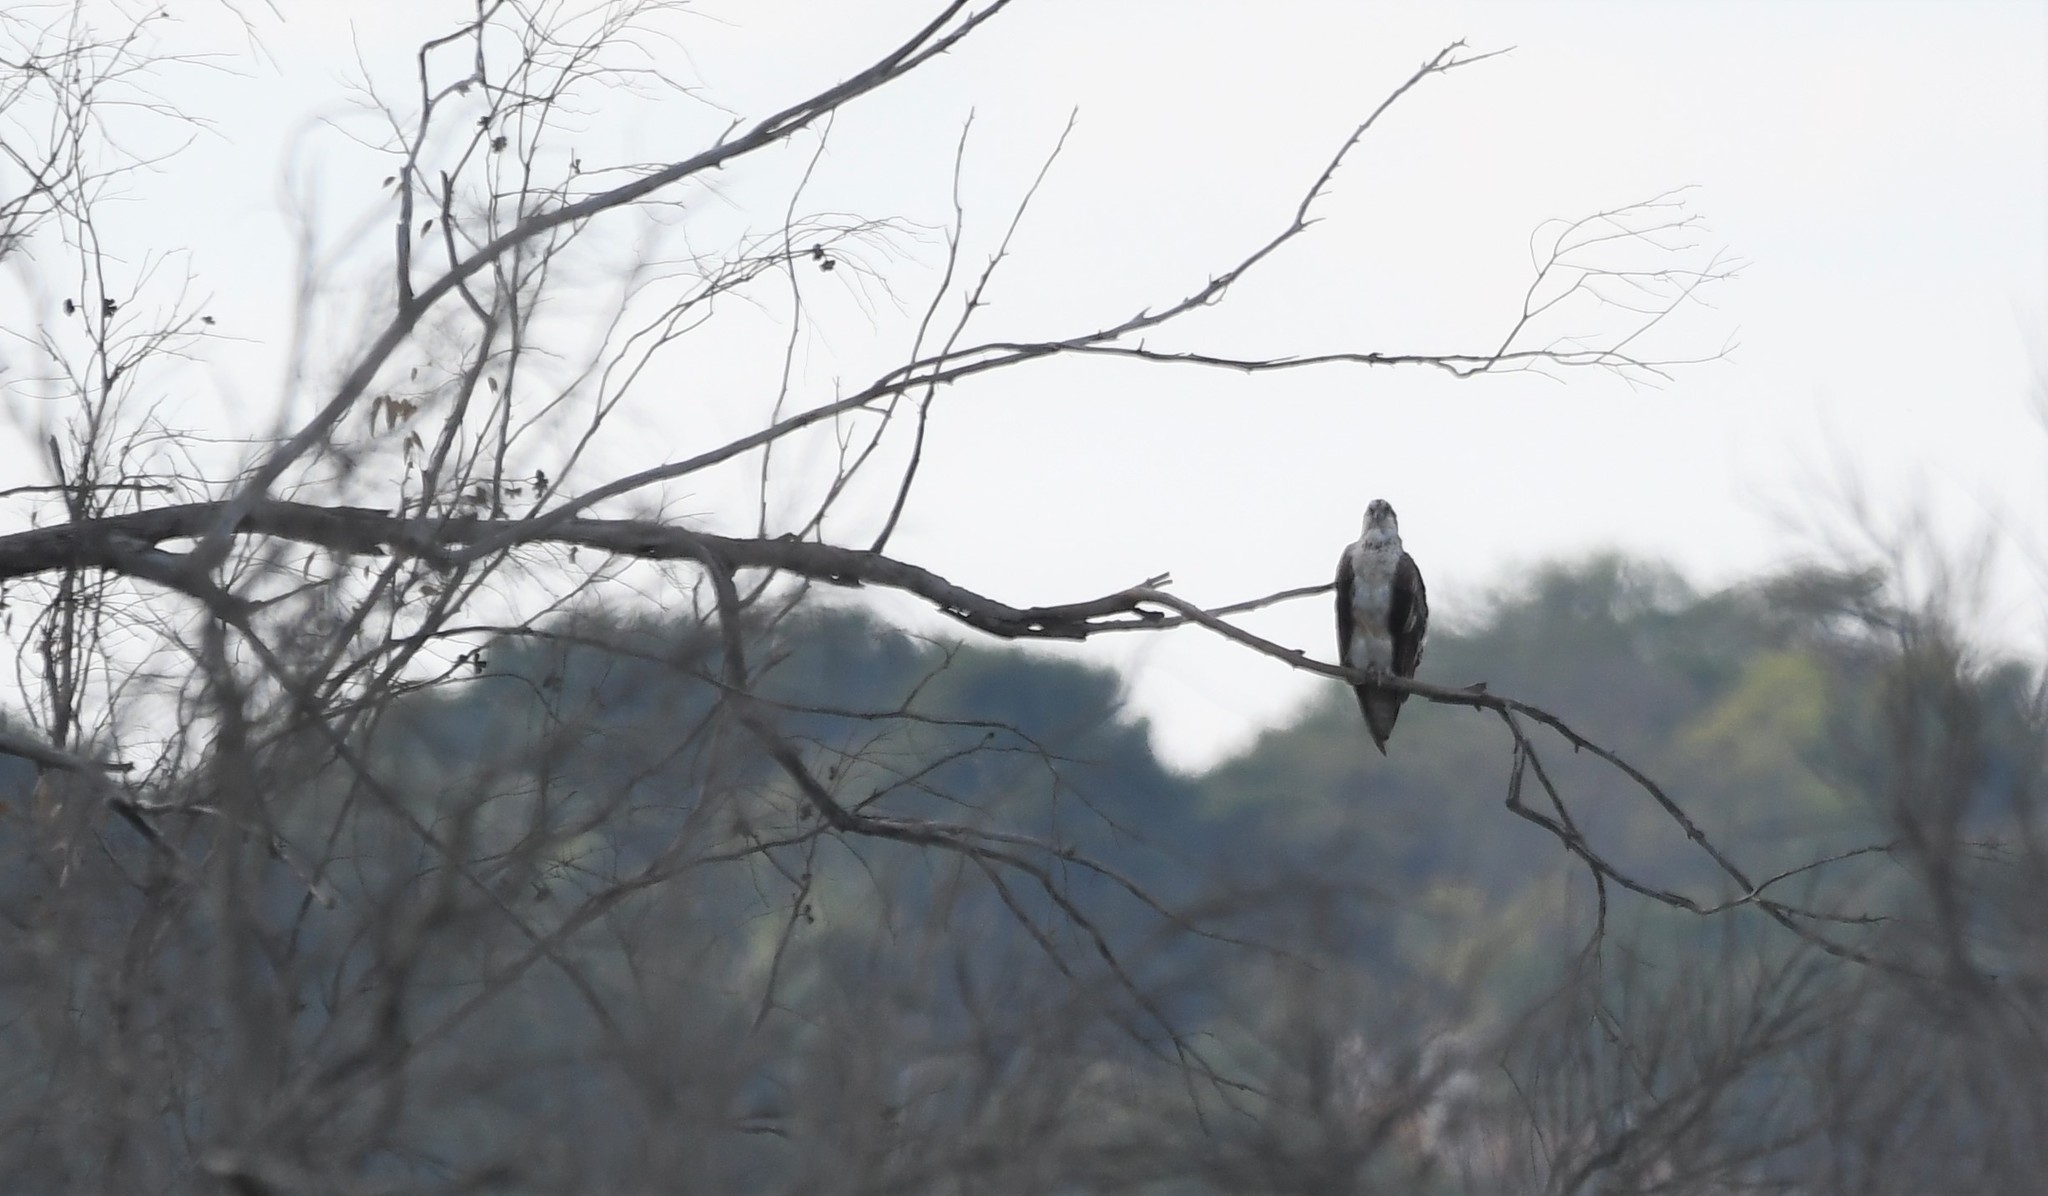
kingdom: Animalia
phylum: Chordata
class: Aves
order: Accipitriformes
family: Pandionidae
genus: Pandion
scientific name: Pandion haliaetus
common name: Osprey
